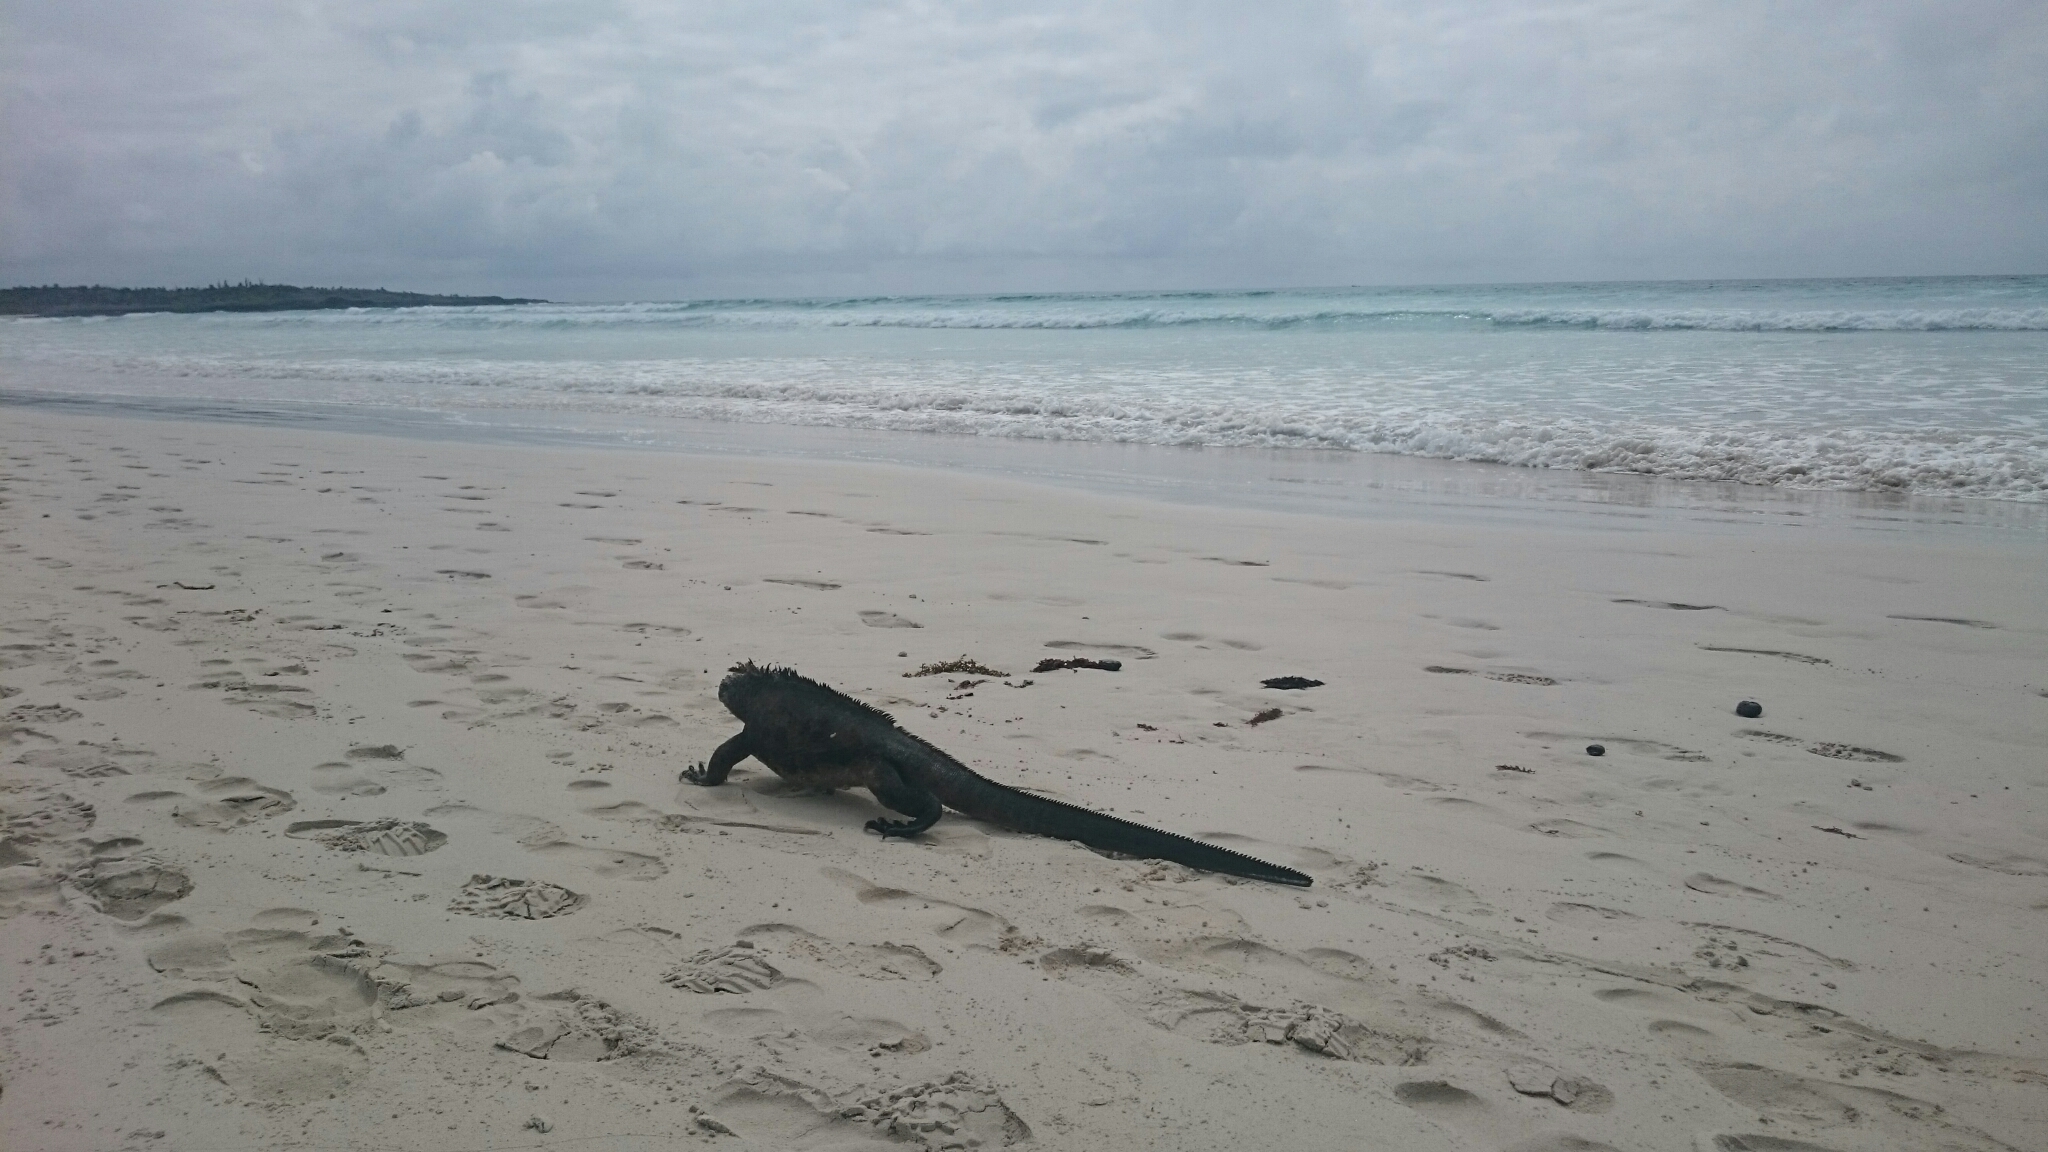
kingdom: Animalia
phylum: Chordata
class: Squamata
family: Iguanidae
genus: Amblyrhynchus
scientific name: Amblyrhynchus cristatus
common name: Marine iguana
